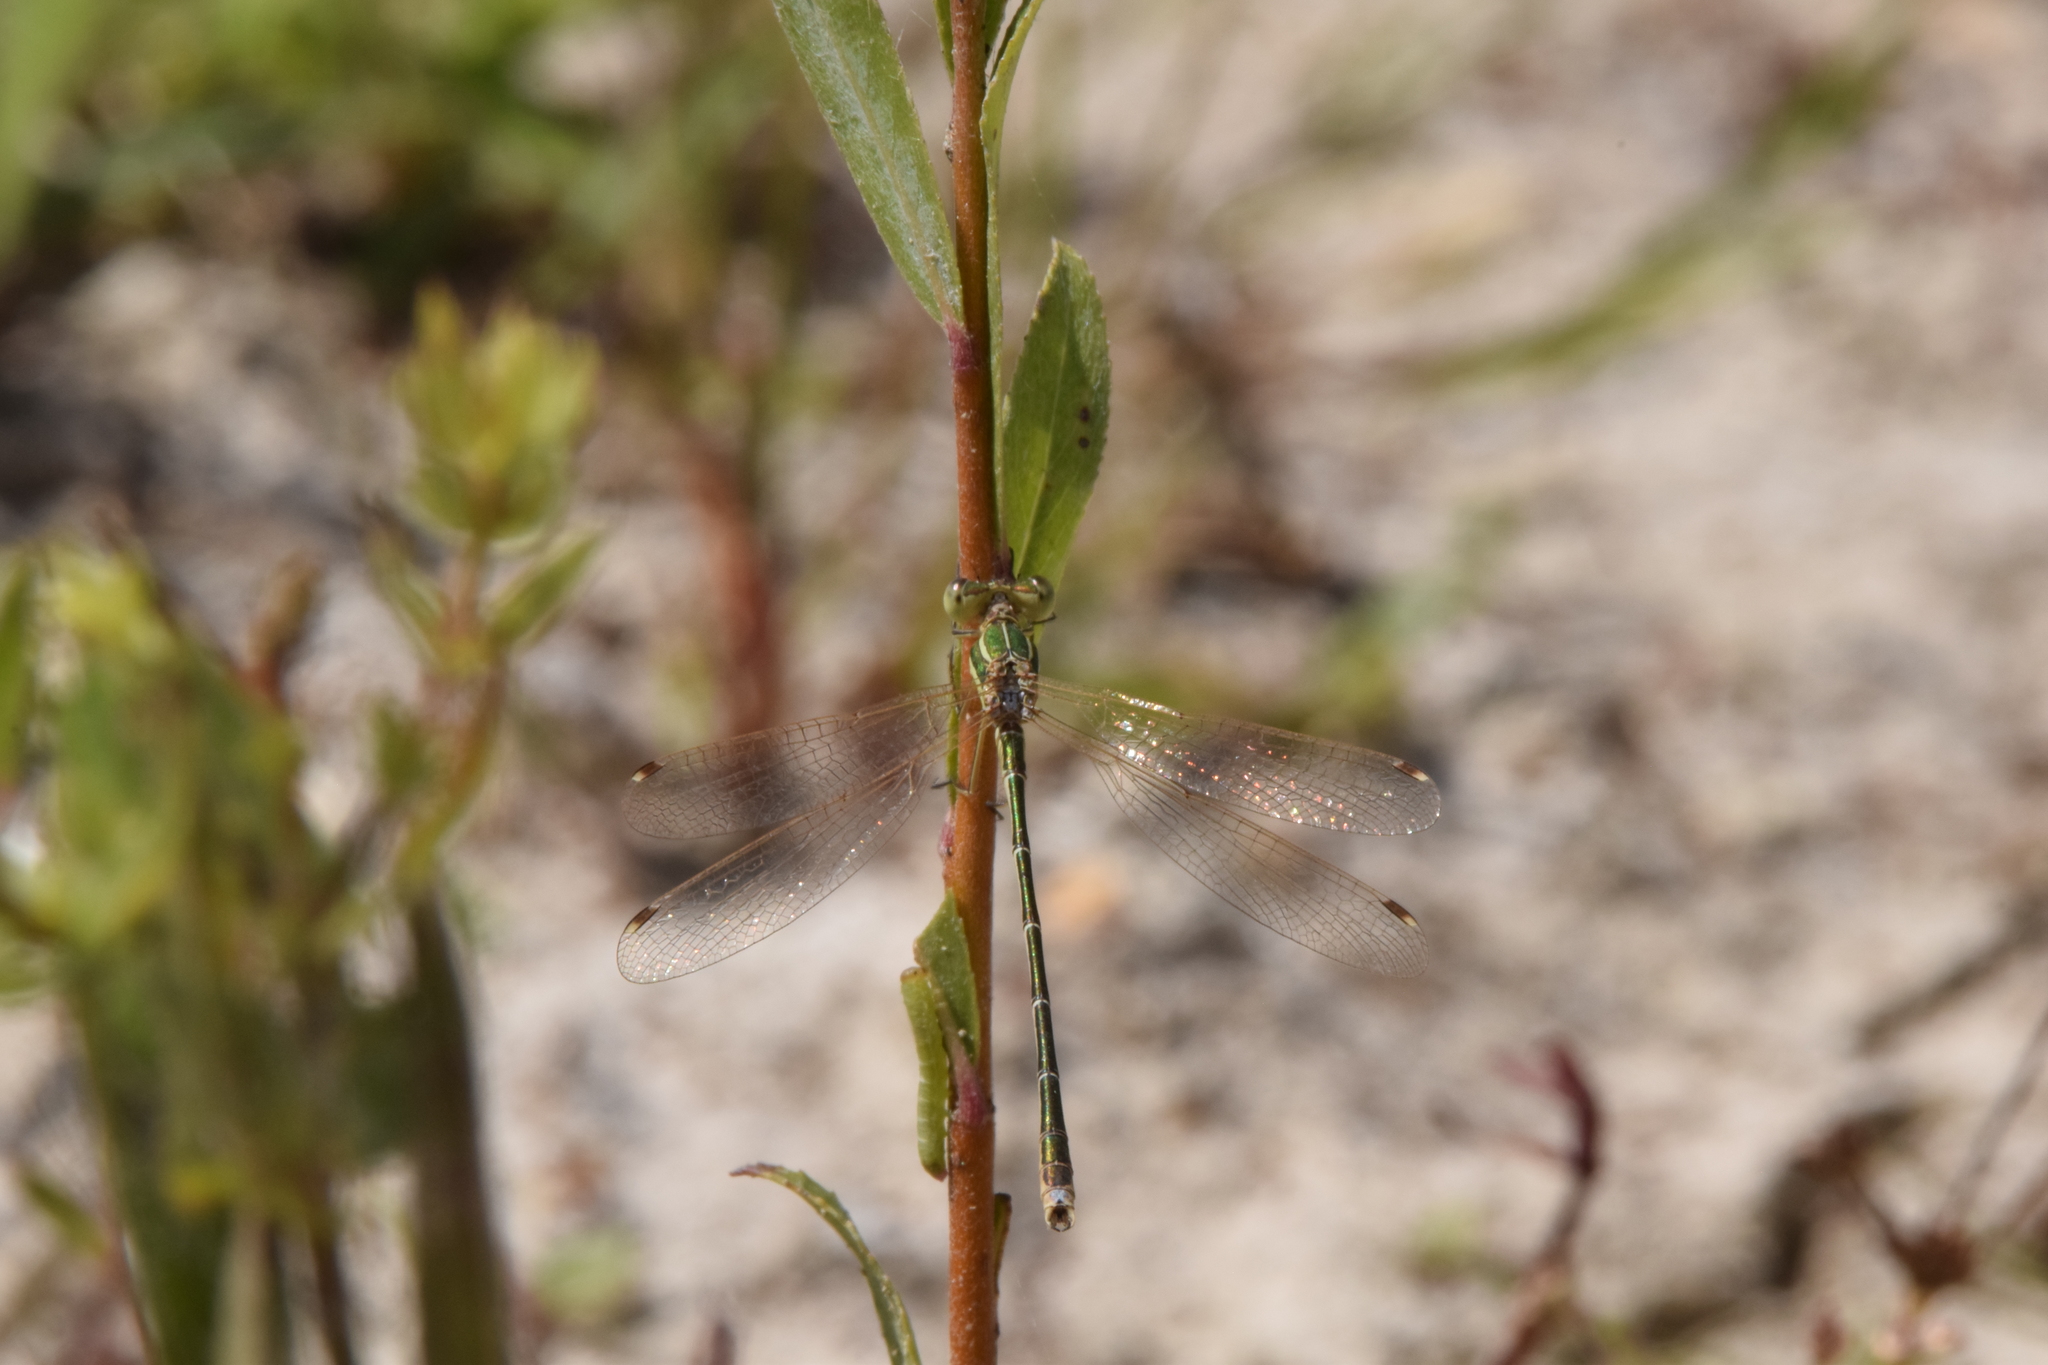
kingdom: Animalia
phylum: Arthropoda
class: Insecta
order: Odonata
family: Lestidae
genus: Lestes
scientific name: Lestes barbarus
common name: Migrant spreadwing
